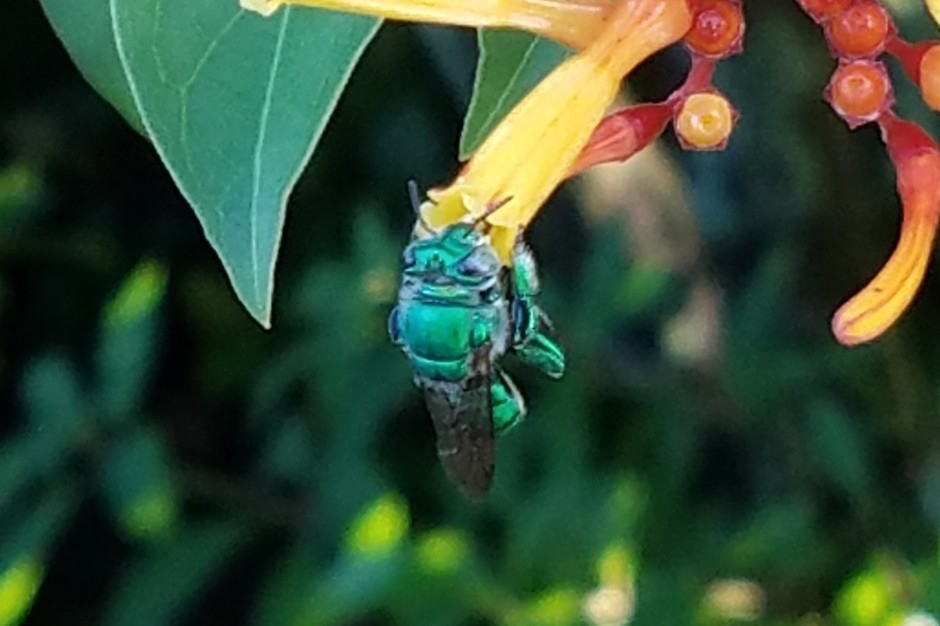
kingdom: Animalia
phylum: Arthropoda
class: Insecta
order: Hymenoptera
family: Apidae
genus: Euglossa
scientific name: Euglossa dilemma
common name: Green orchid bee
